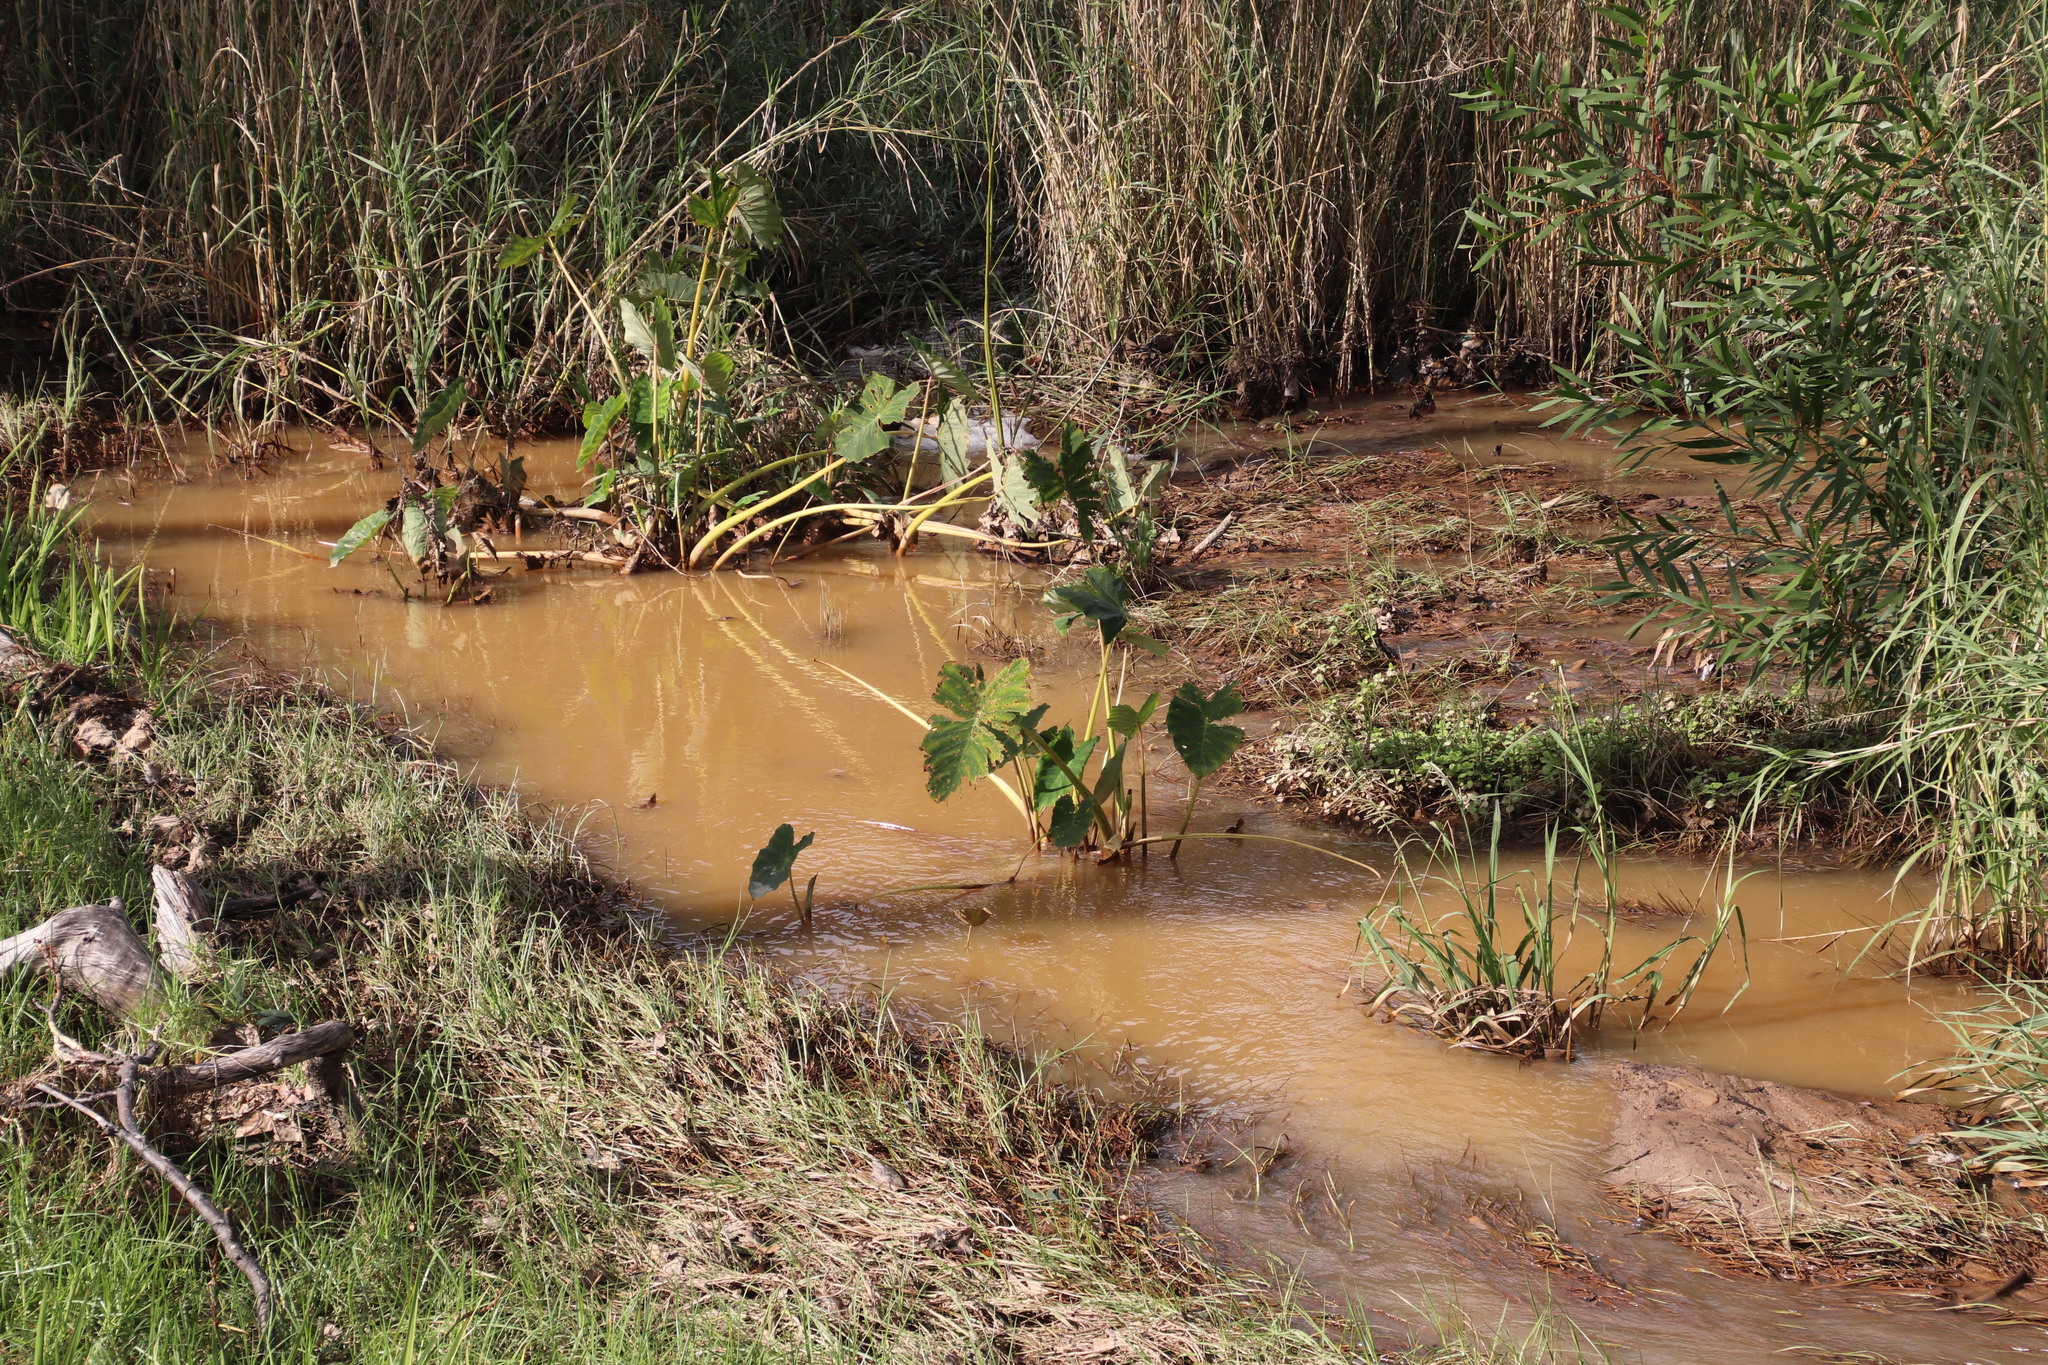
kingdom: Plantae
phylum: Tracheophyta
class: Liliopsida
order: Alismatales
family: Araceae
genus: Colocasia
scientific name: Colocasia esculenta
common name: Taro
